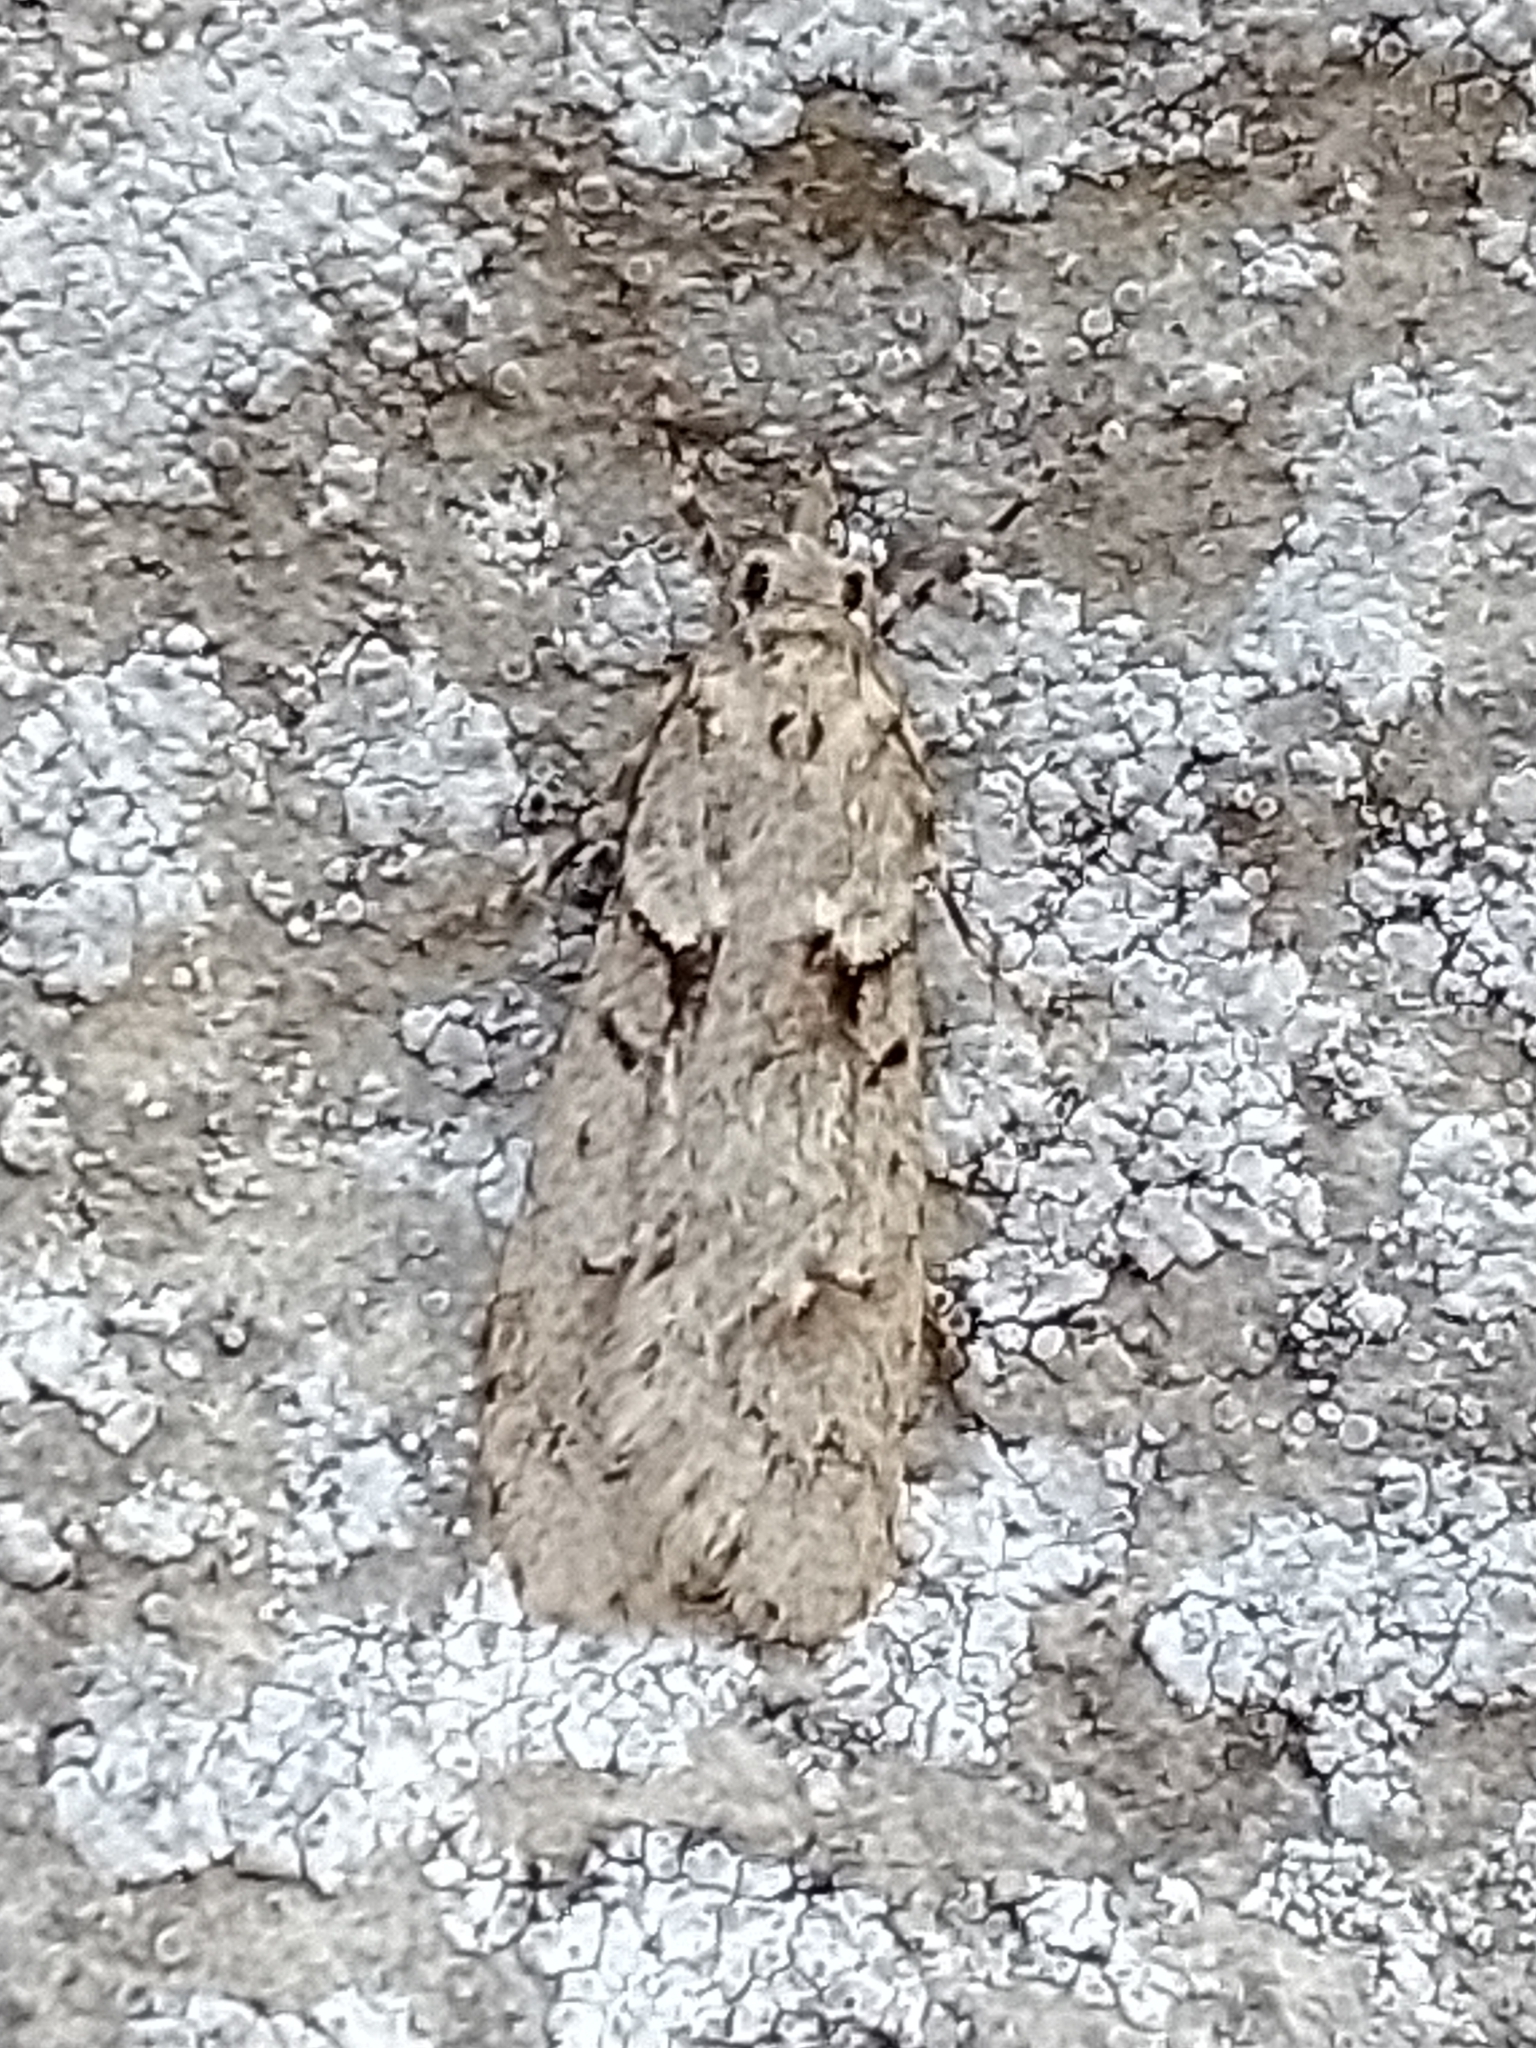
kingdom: Animalia
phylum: Arthropoda
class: Insecta
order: Lepidoptera
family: Lypusidae
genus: Diurnea
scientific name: Diurnea fagella
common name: March tubic
